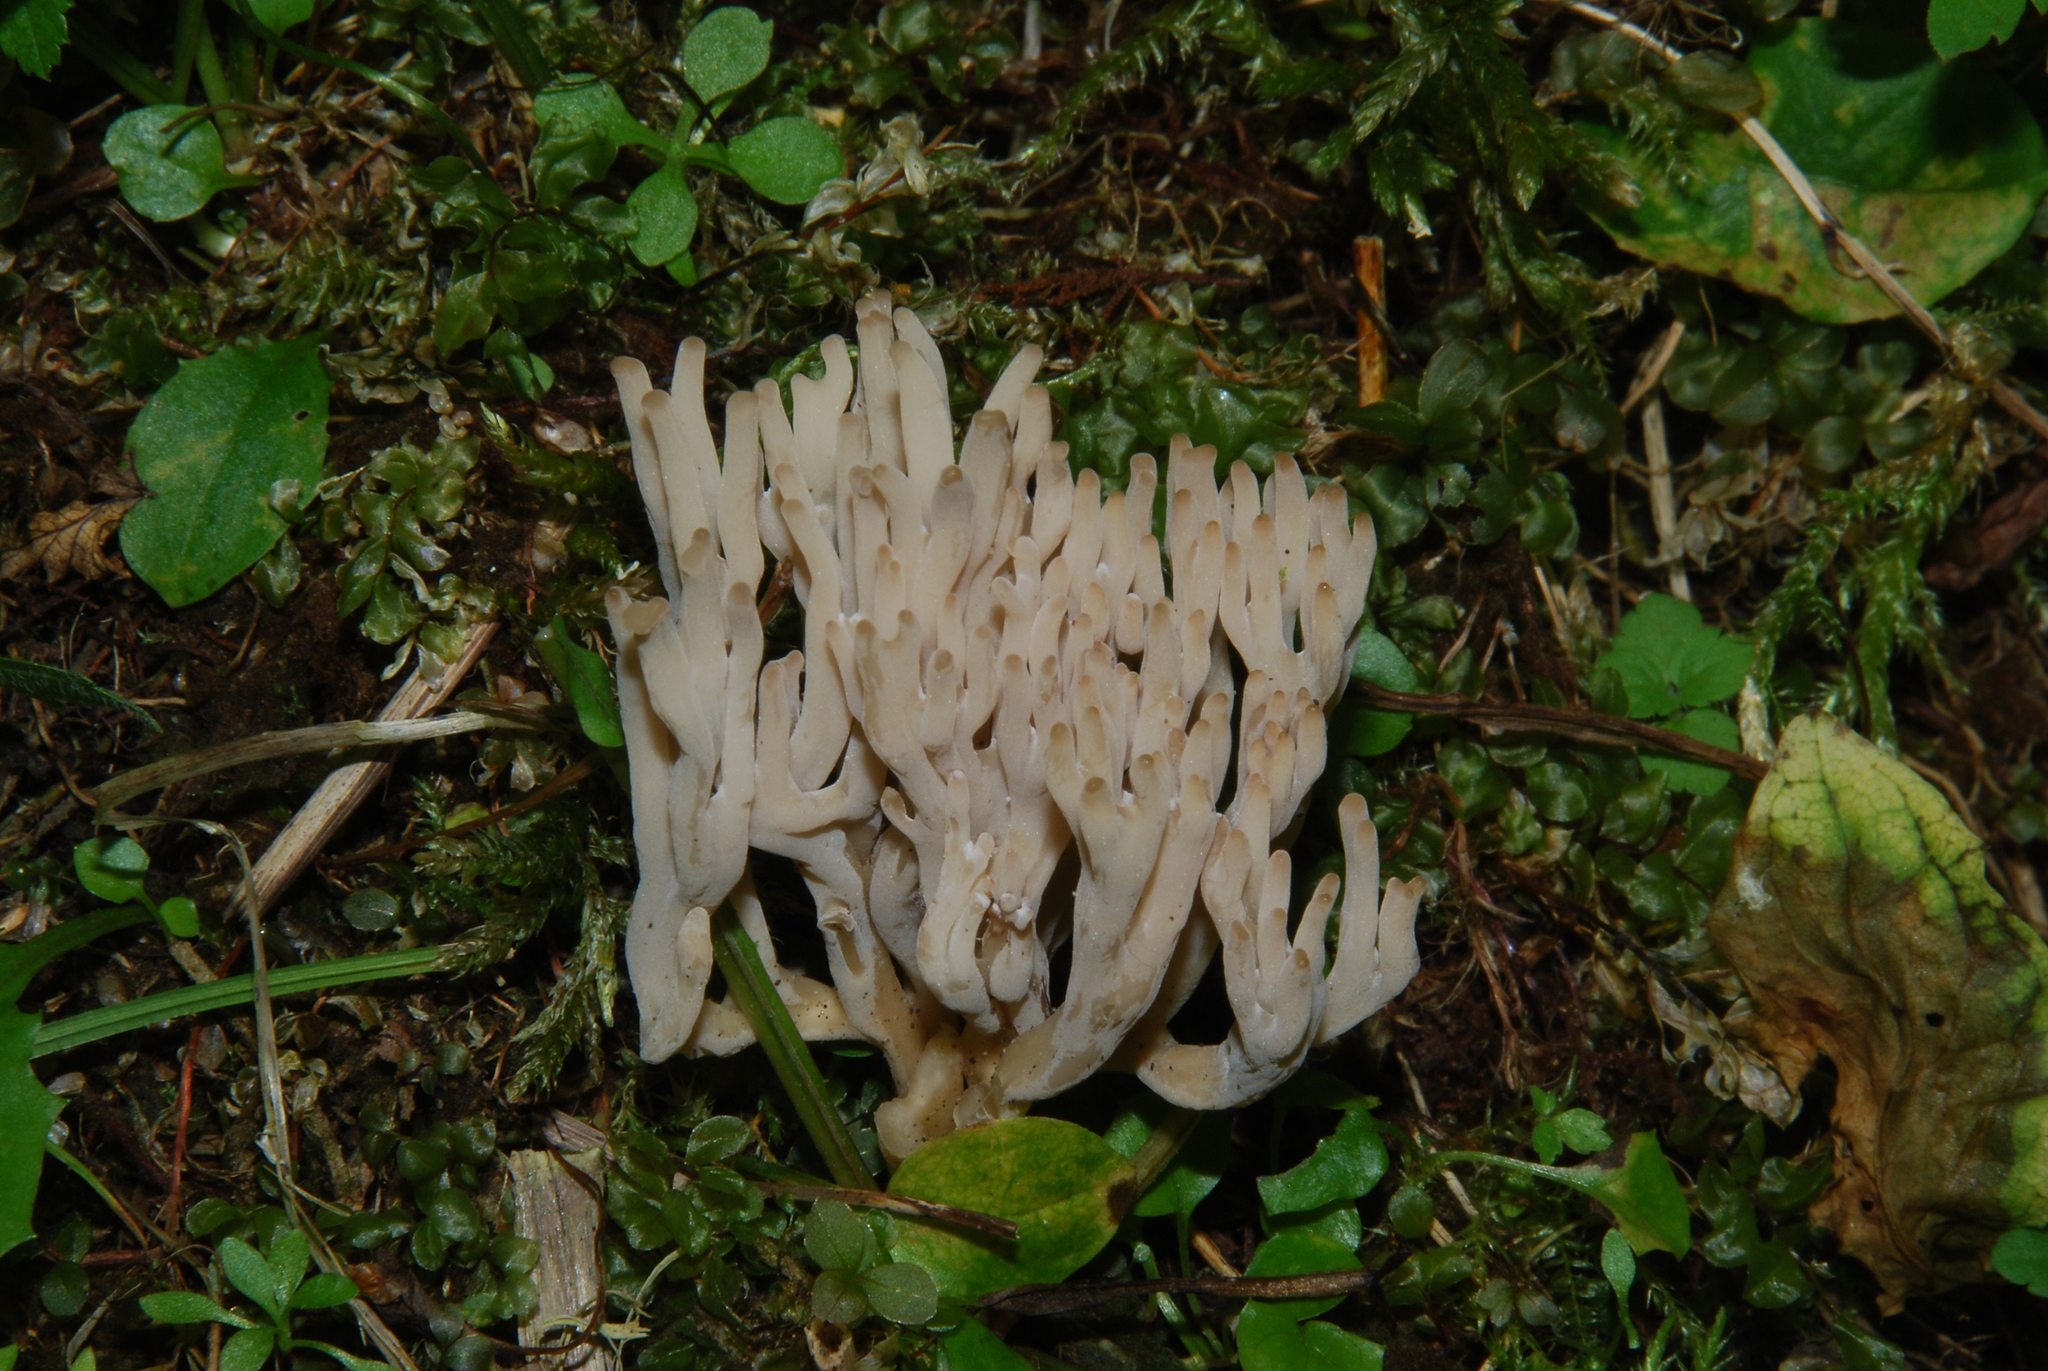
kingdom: Fungi
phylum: Basidiomycota
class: Agaricomycetes
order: Cantharellales
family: Hydnaceae
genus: Clavulina
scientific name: Clavulina cinerea
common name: Grey coral
